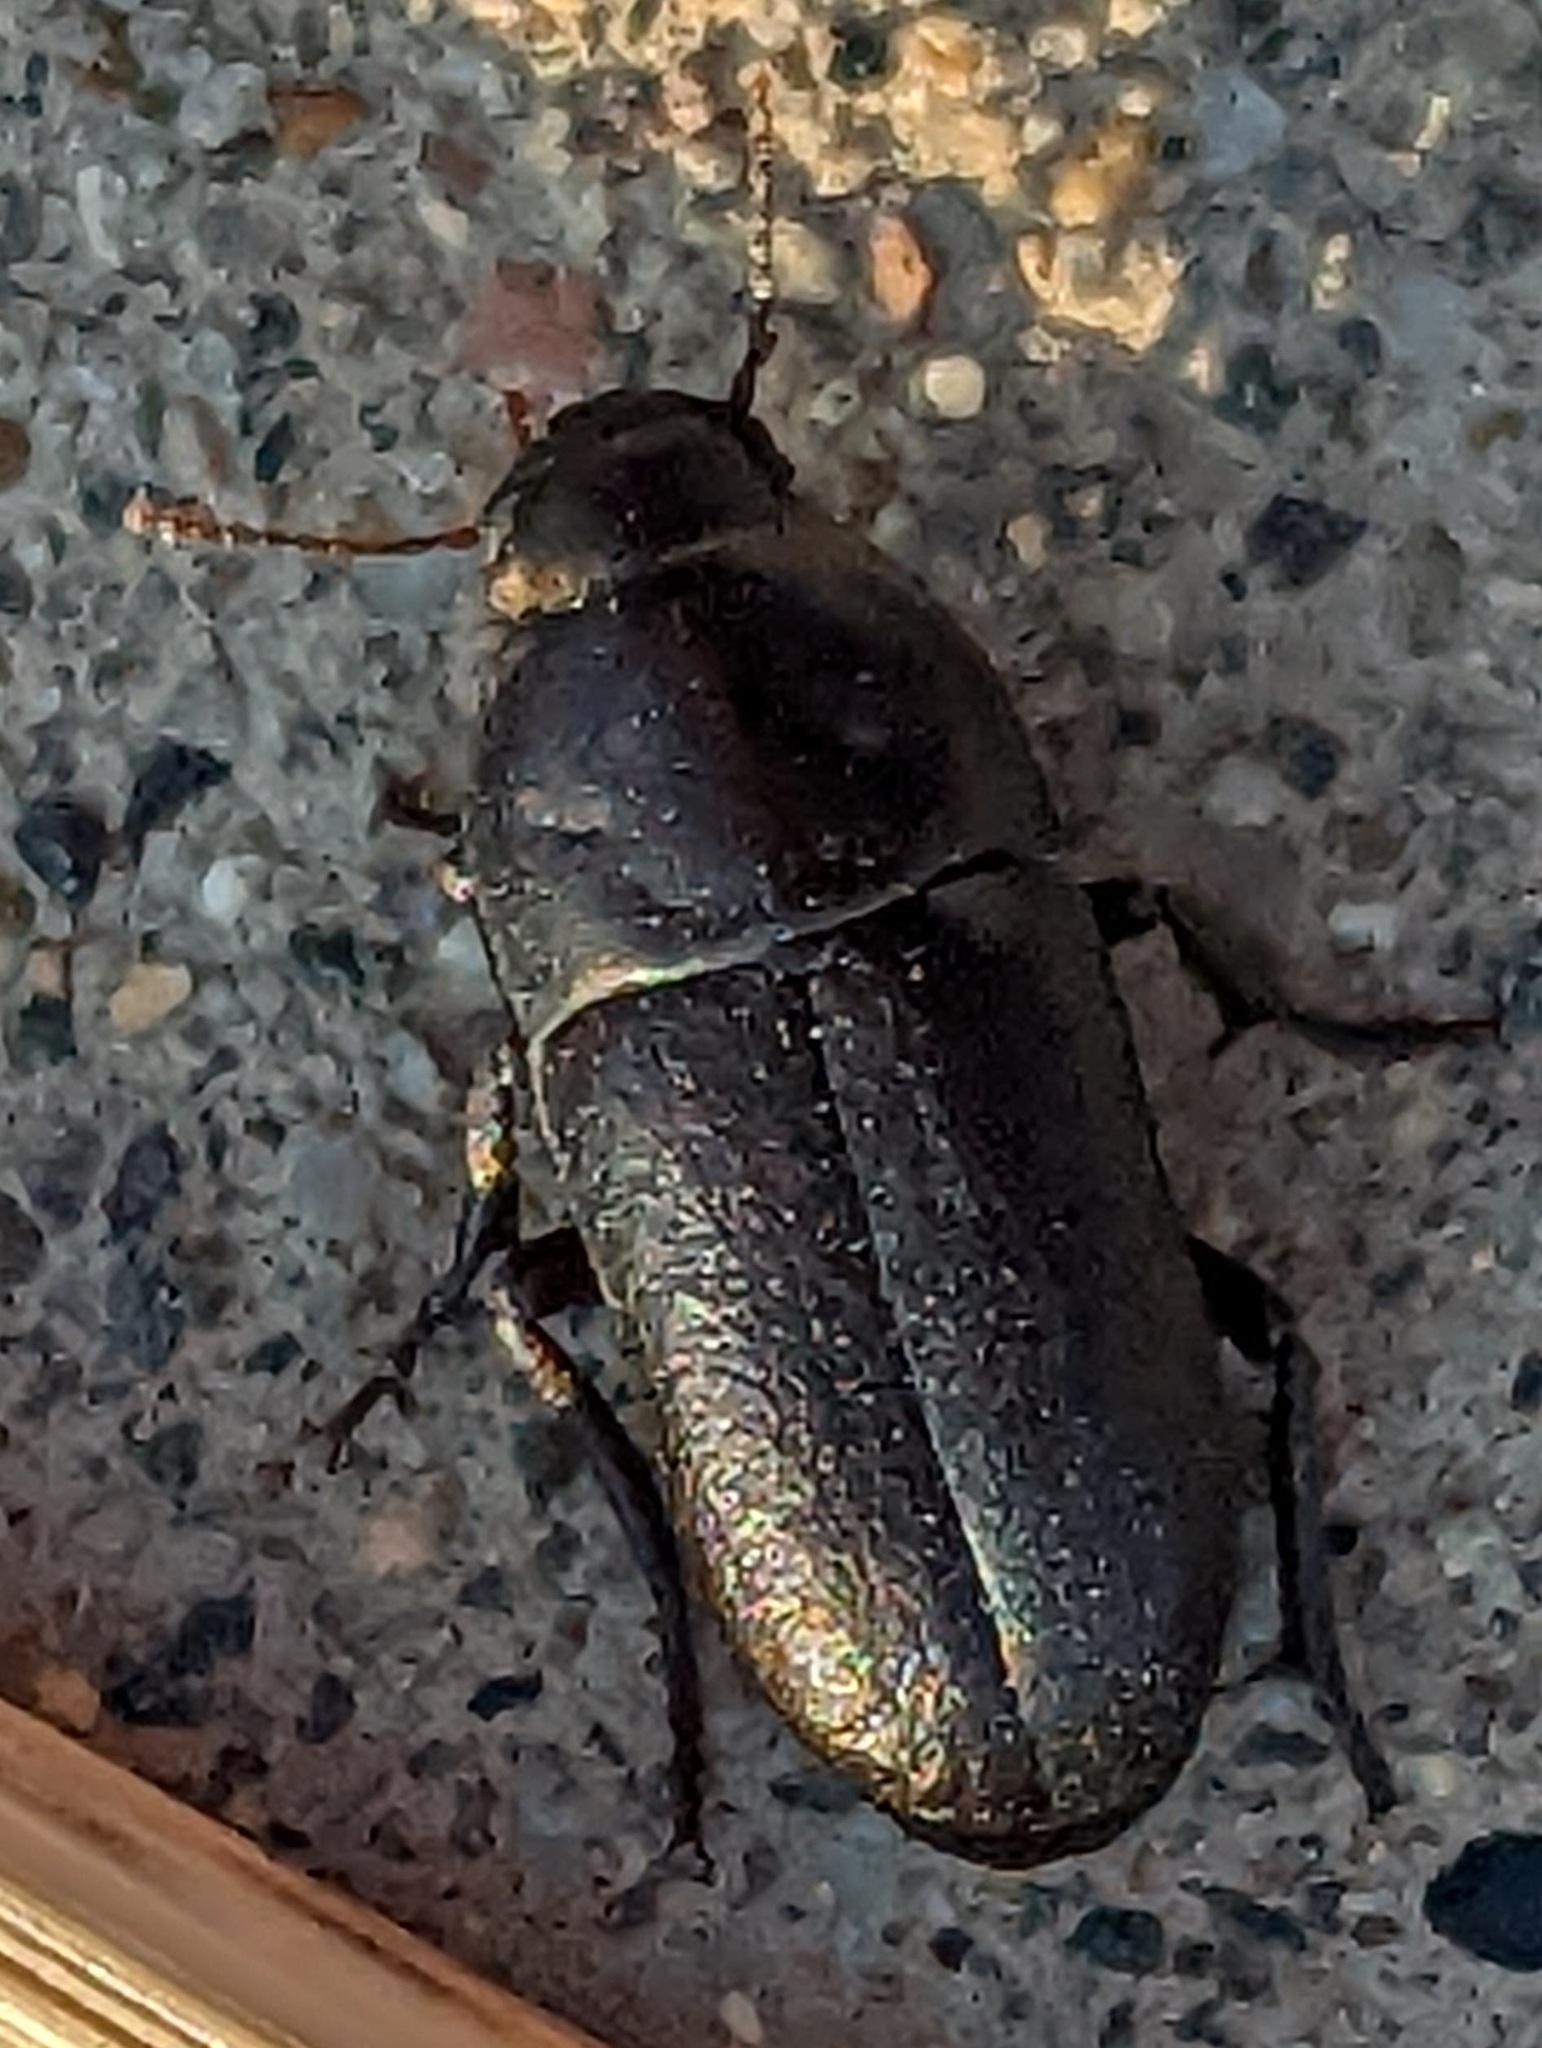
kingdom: Animalia
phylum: Arthropoda
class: Insecta
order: Coleoptera
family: Tenebrionidae
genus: Coniontis
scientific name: Coniontis
